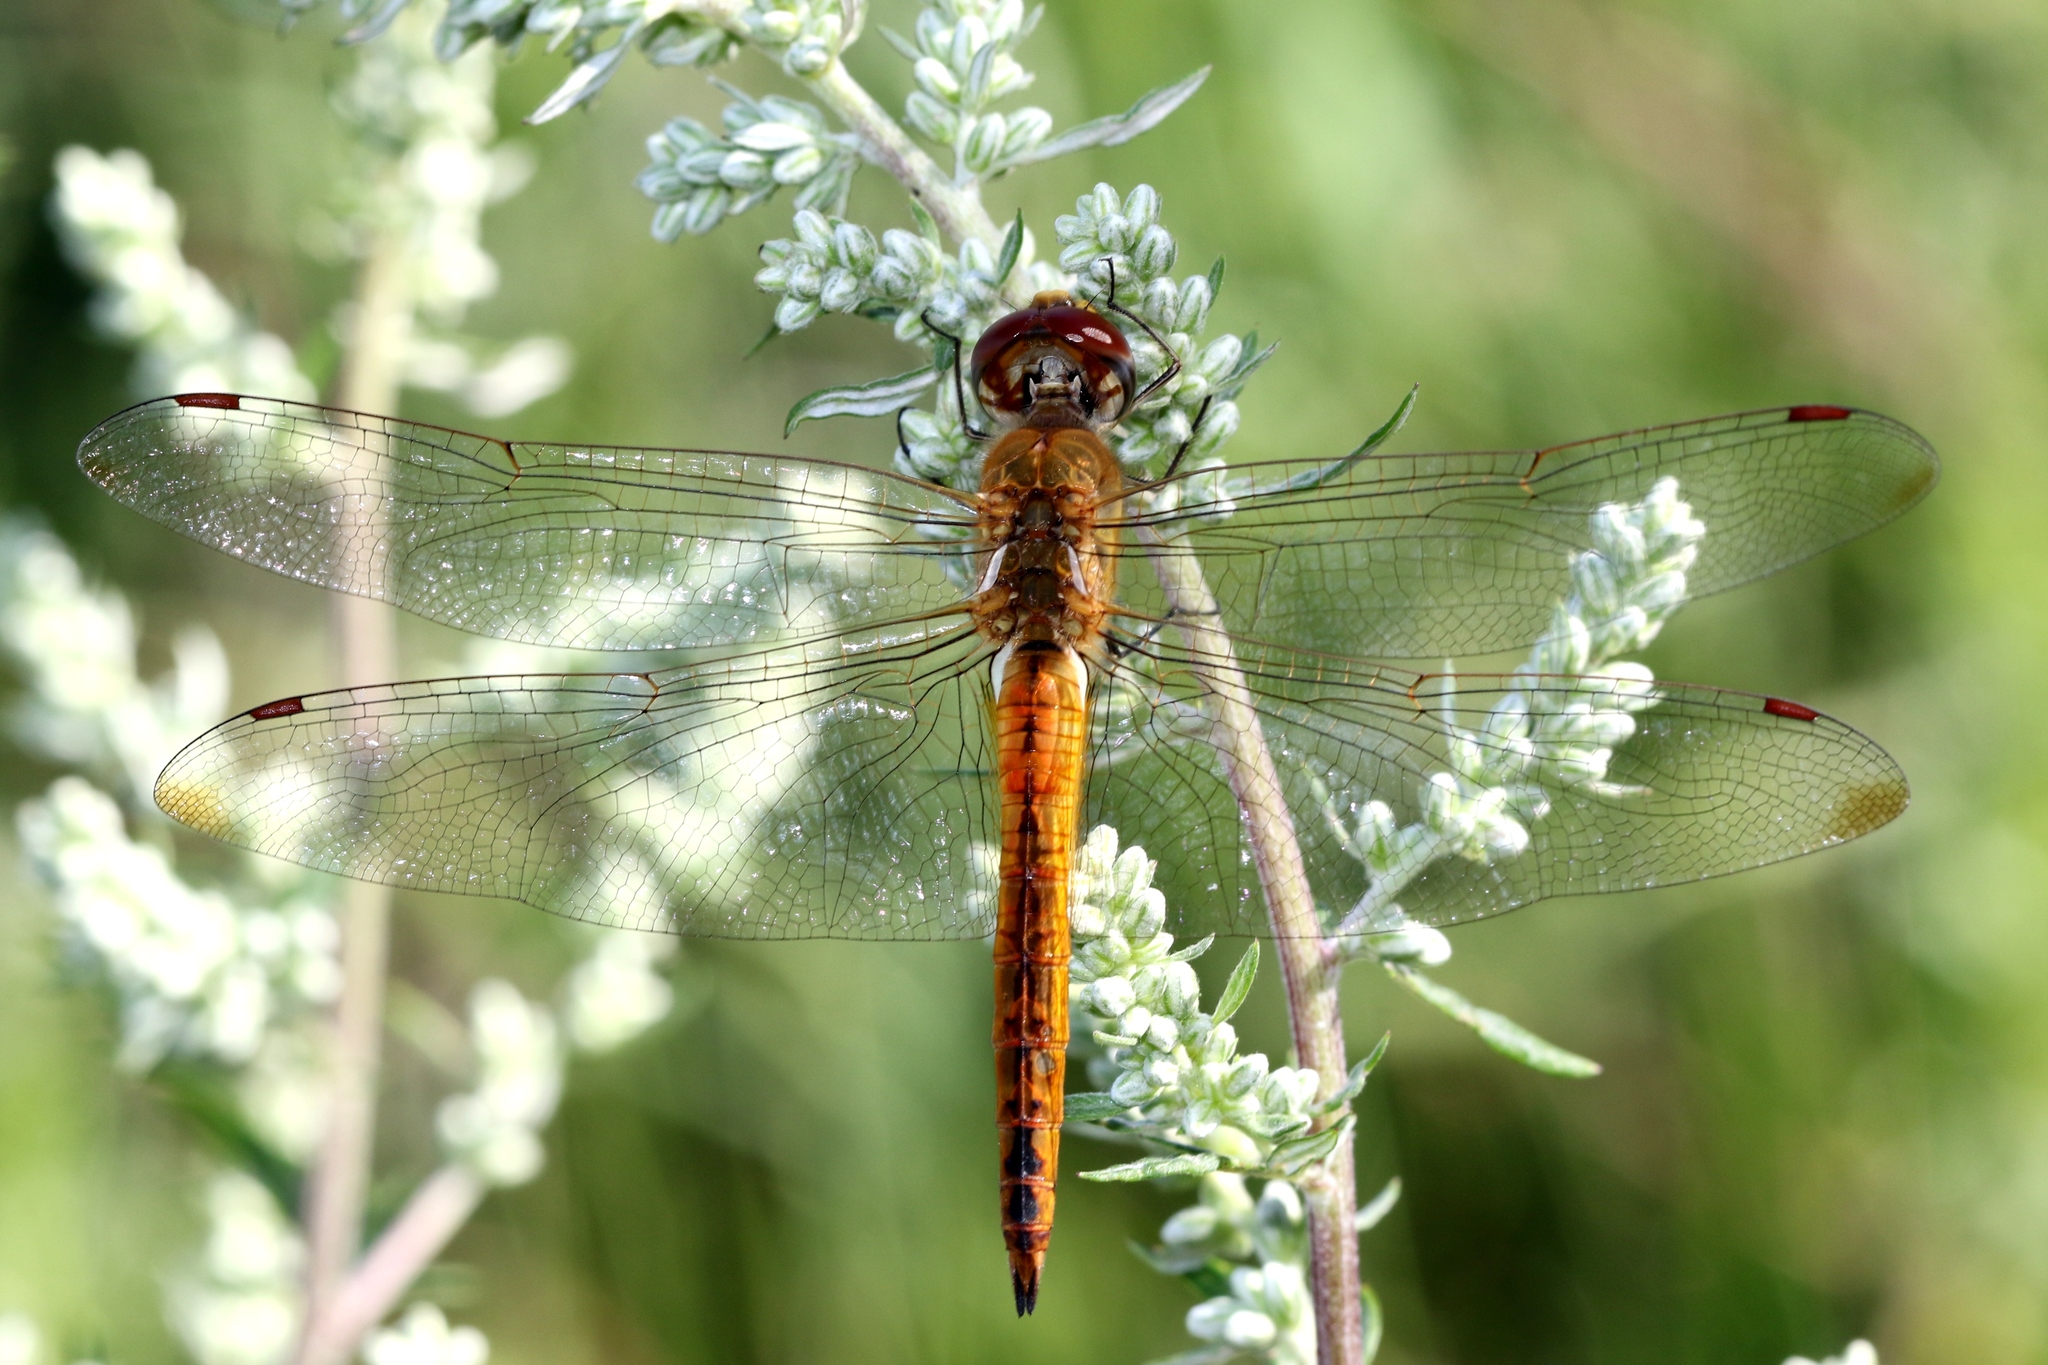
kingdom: Animalia
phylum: Arthropoda
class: Insecta
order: Odonata
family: Libellulidae
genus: Pantala
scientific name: Pantala flavescens
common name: Wandering glider
